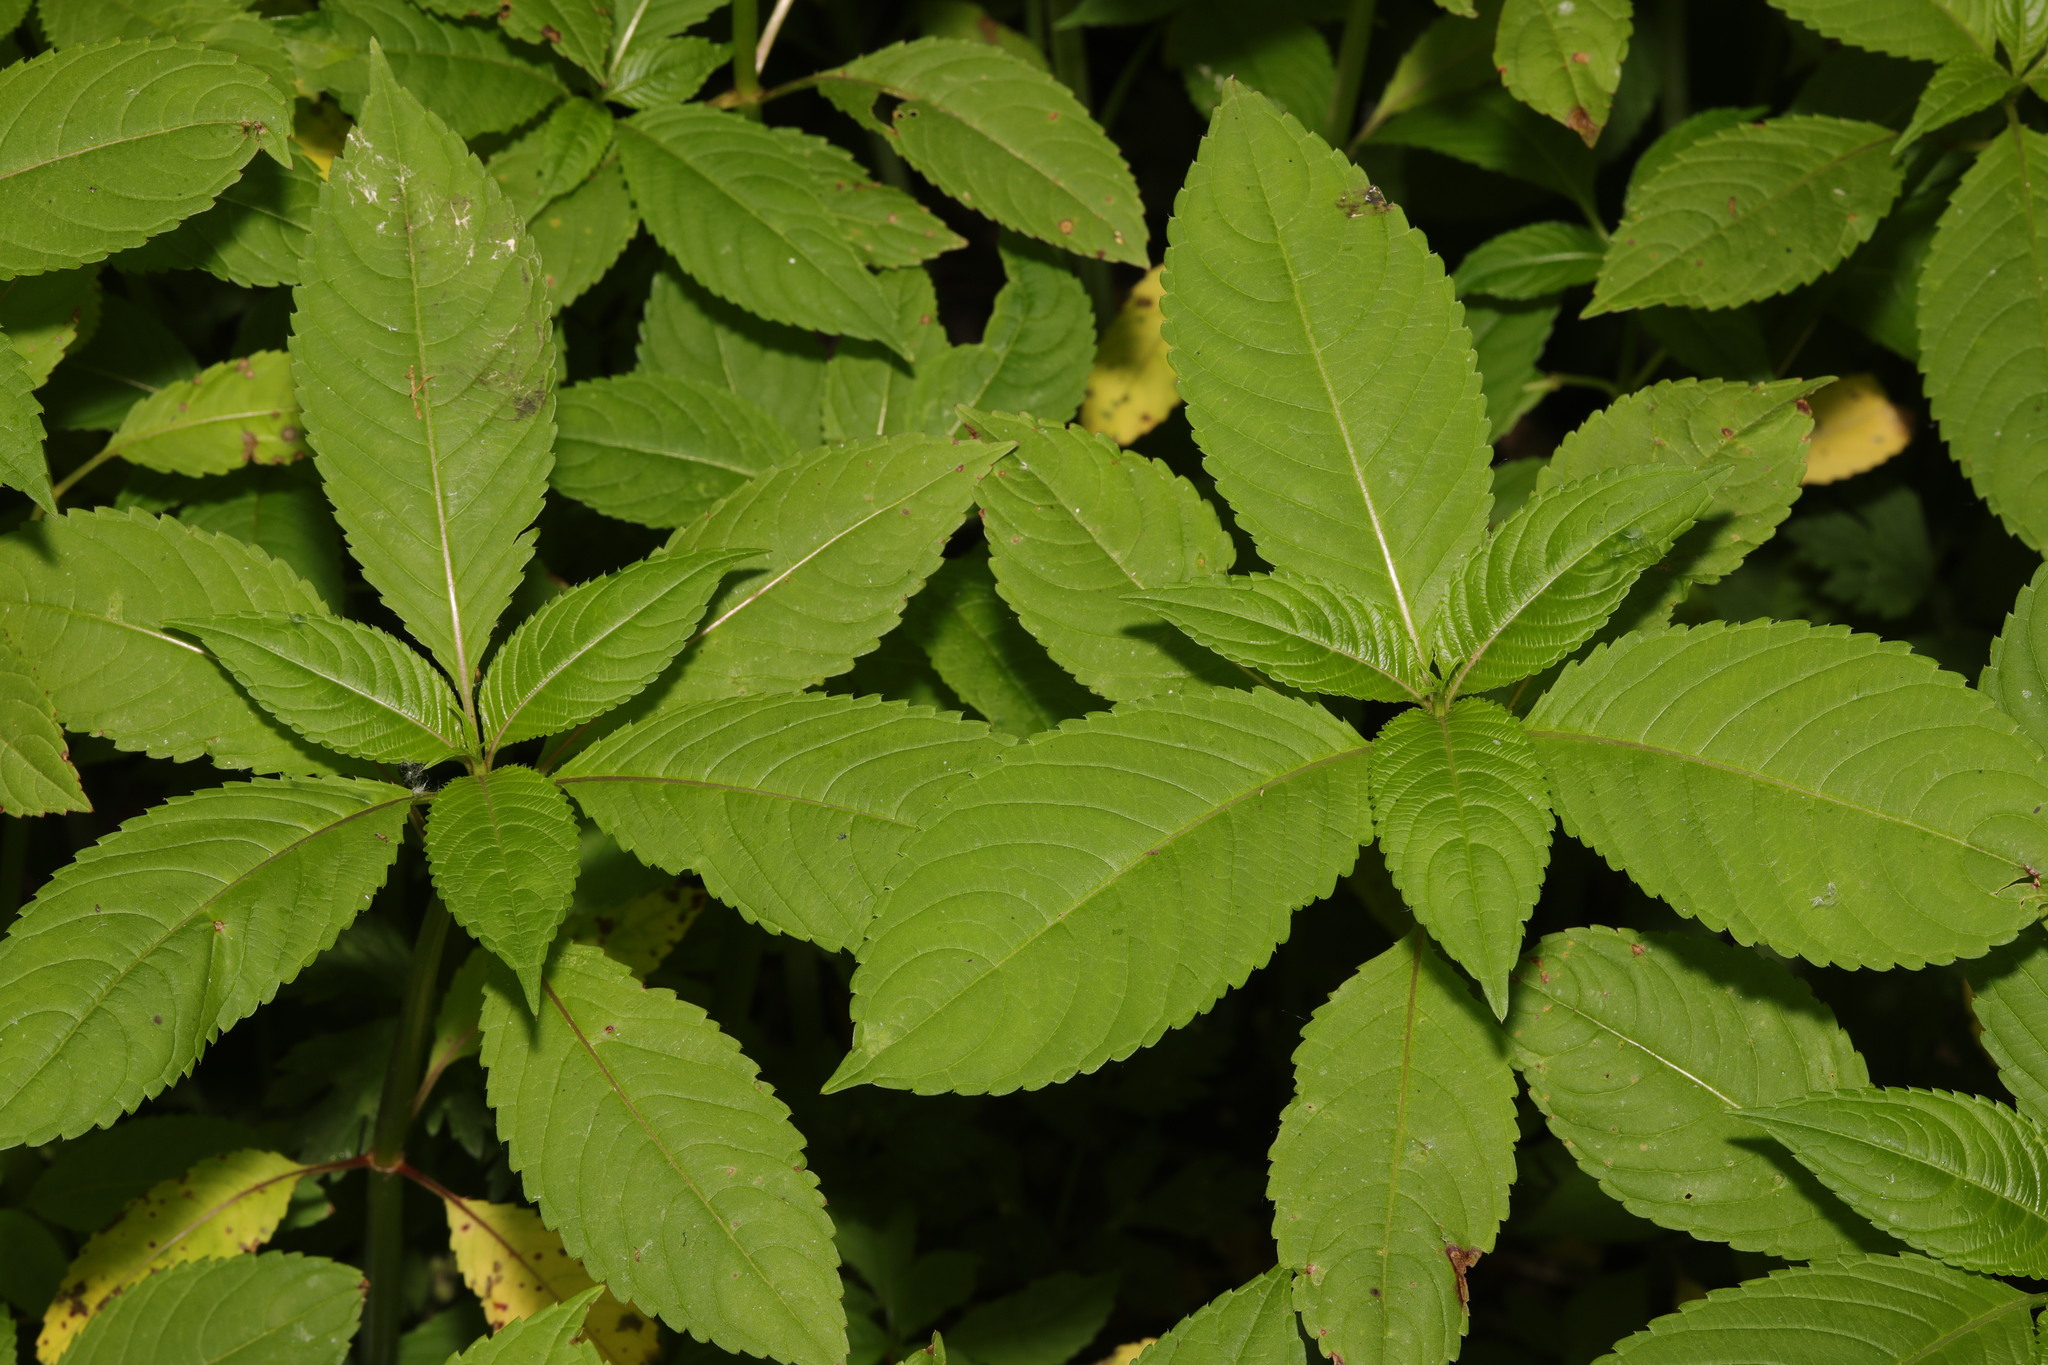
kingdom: Plantae
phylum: Tracheophyta
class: Magnoliopsida
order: Ericales
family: Balsaminaceae
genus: Impatiens
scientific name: Impatiens glandulifera
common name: Himalayan balsam
